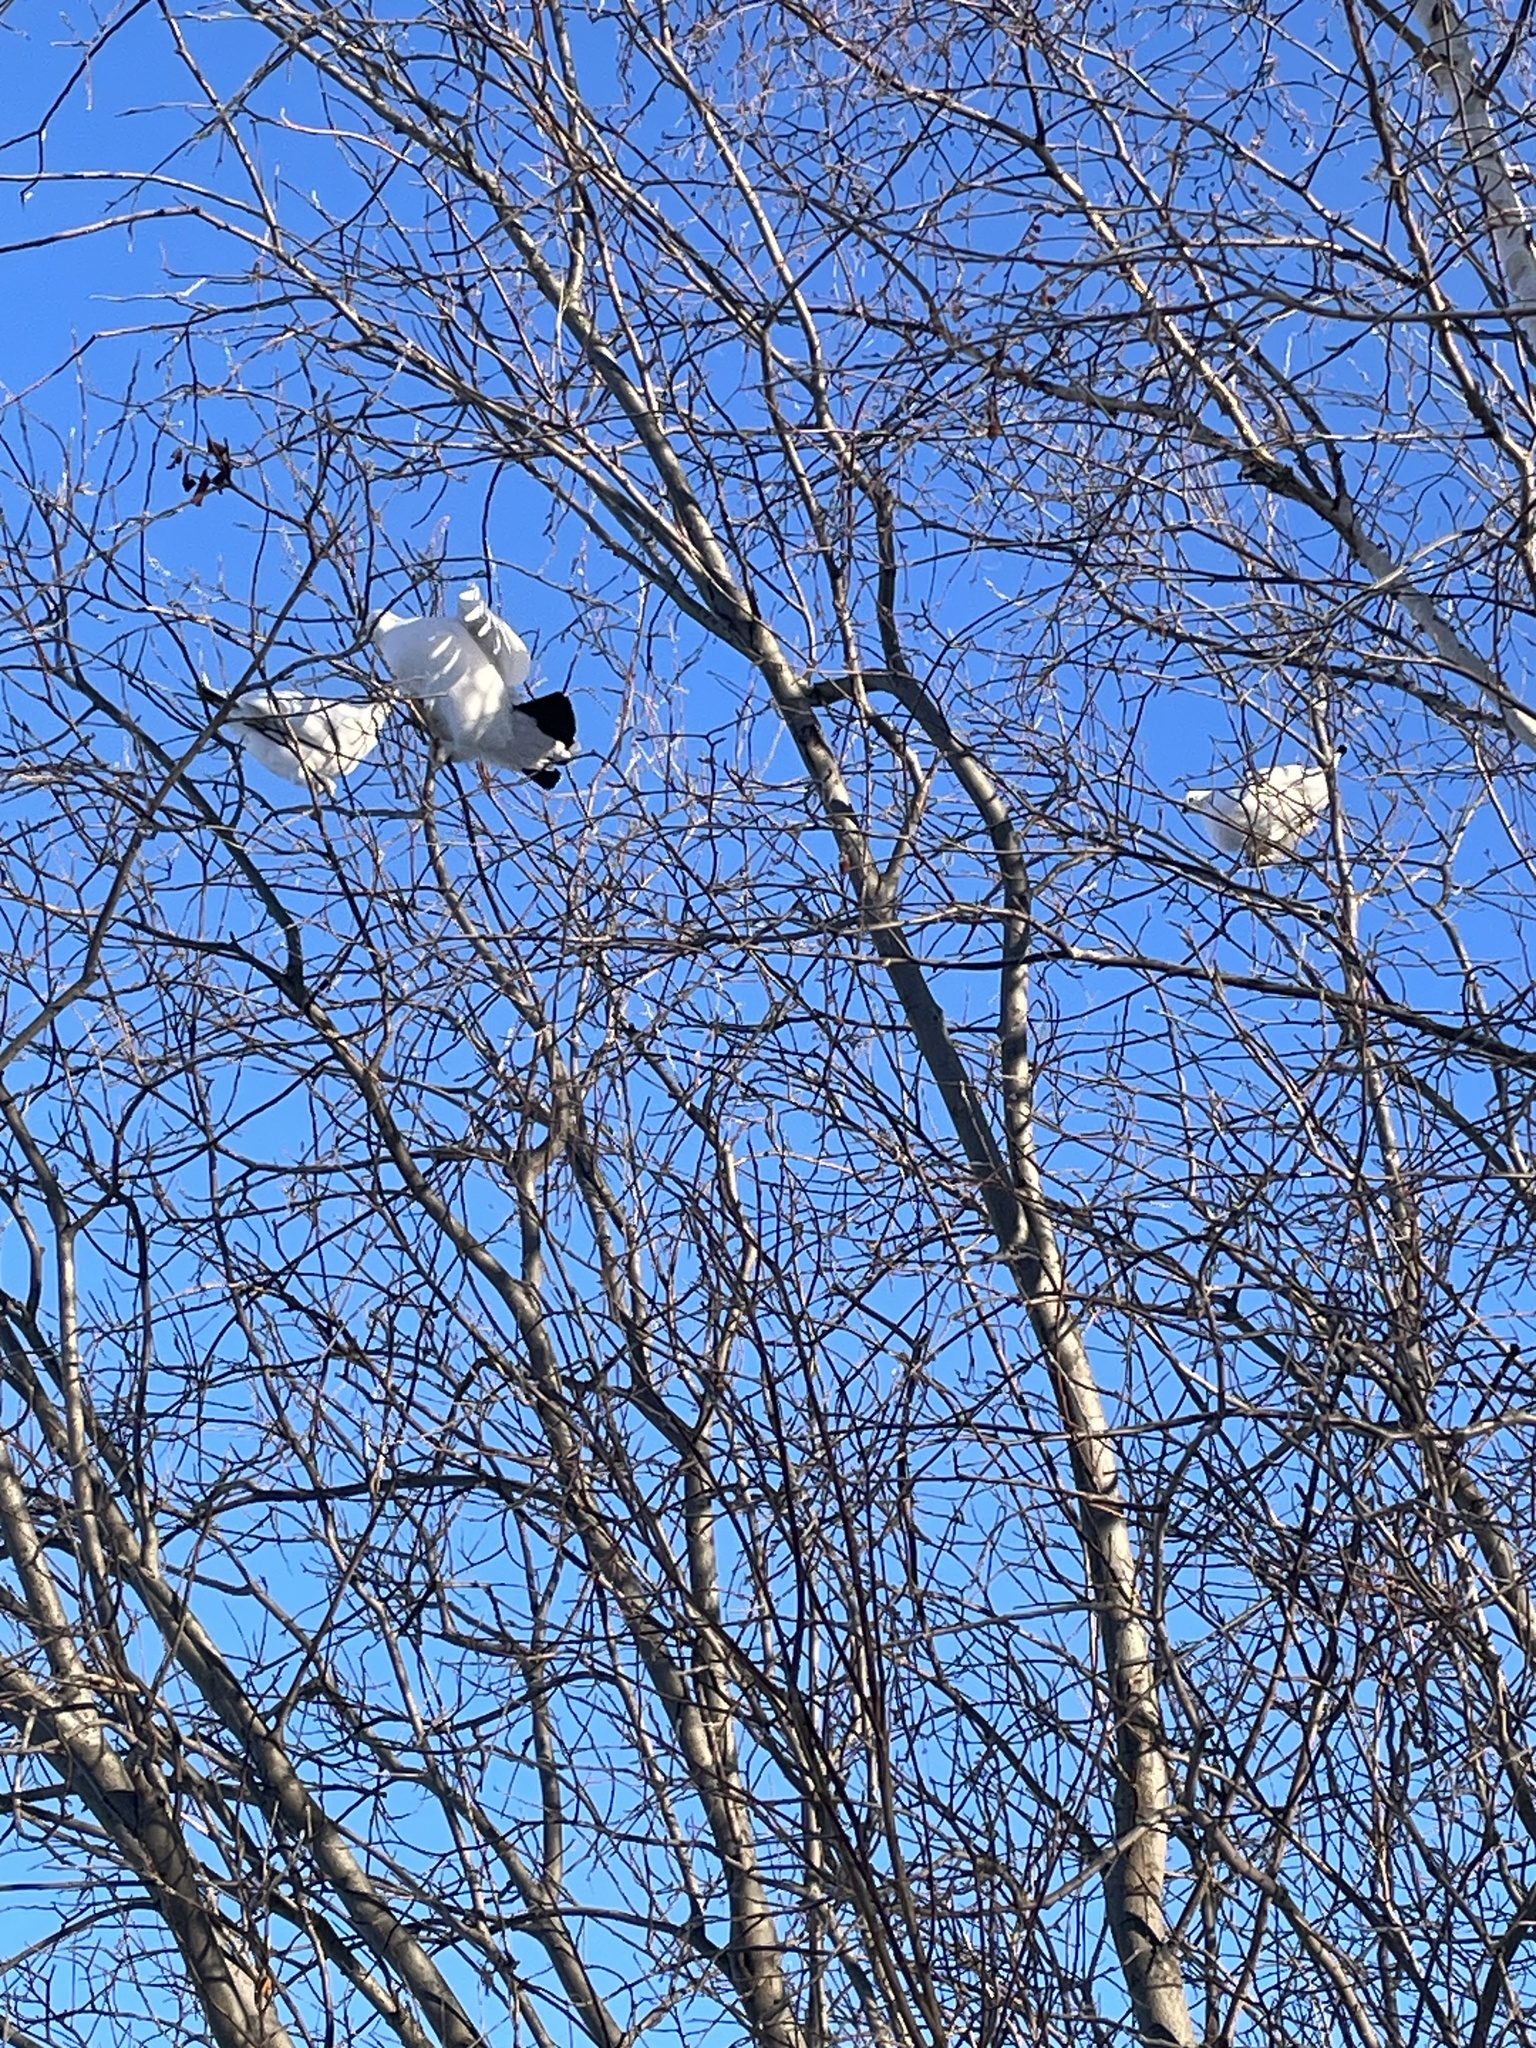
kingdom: Animalia
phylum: Chordata
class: Aves
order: Galliformes
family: Phasianidae
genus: Lagopus
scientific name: Lagopus lagopus
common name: Willow ptarmigan
